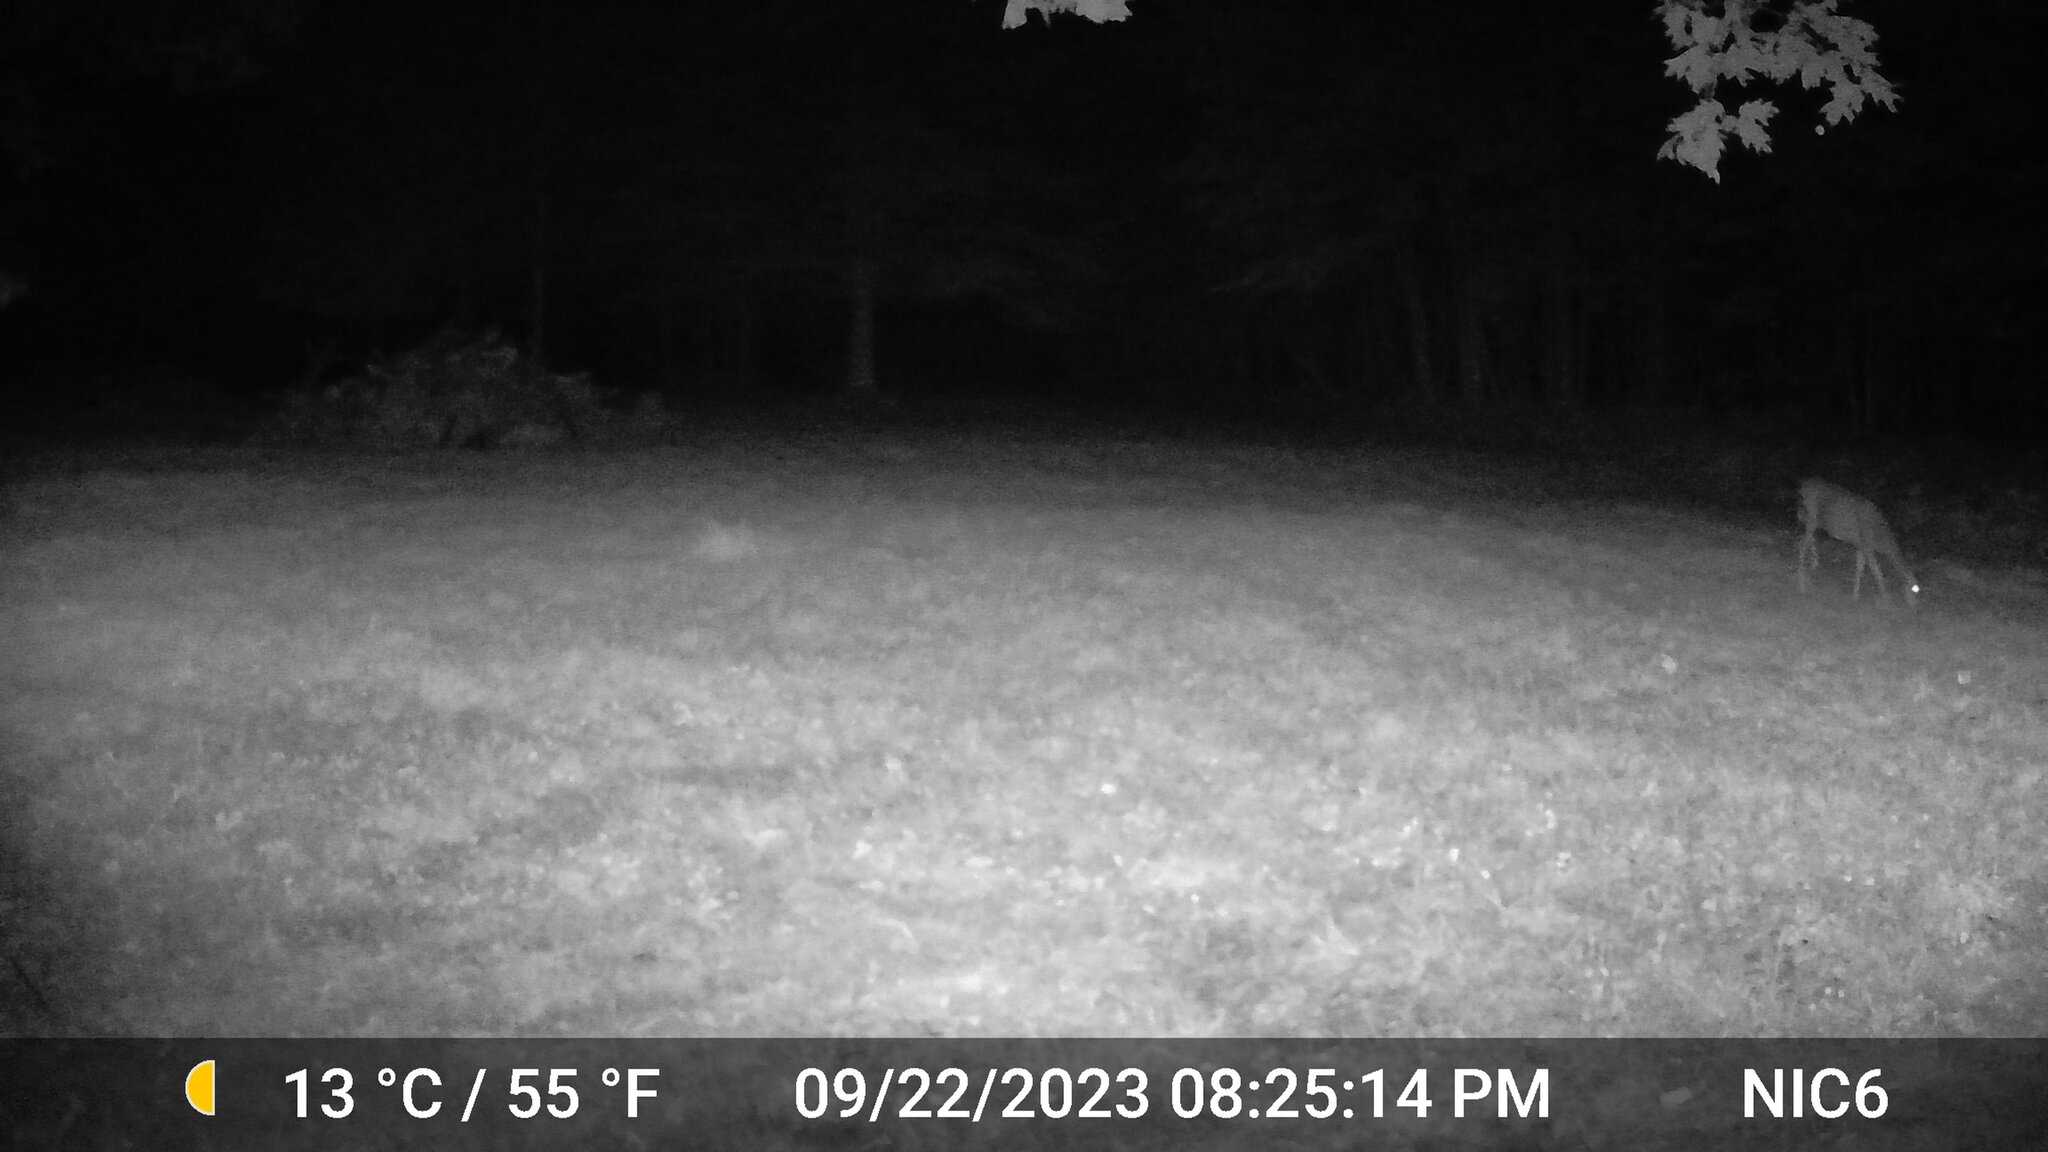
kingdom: Animalia
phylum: Chordata
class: Mammalia
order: Artiodactyla
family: Cervidae
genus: Odocoileus
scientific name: Odocoileus virginianus
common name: White-tailed deer
